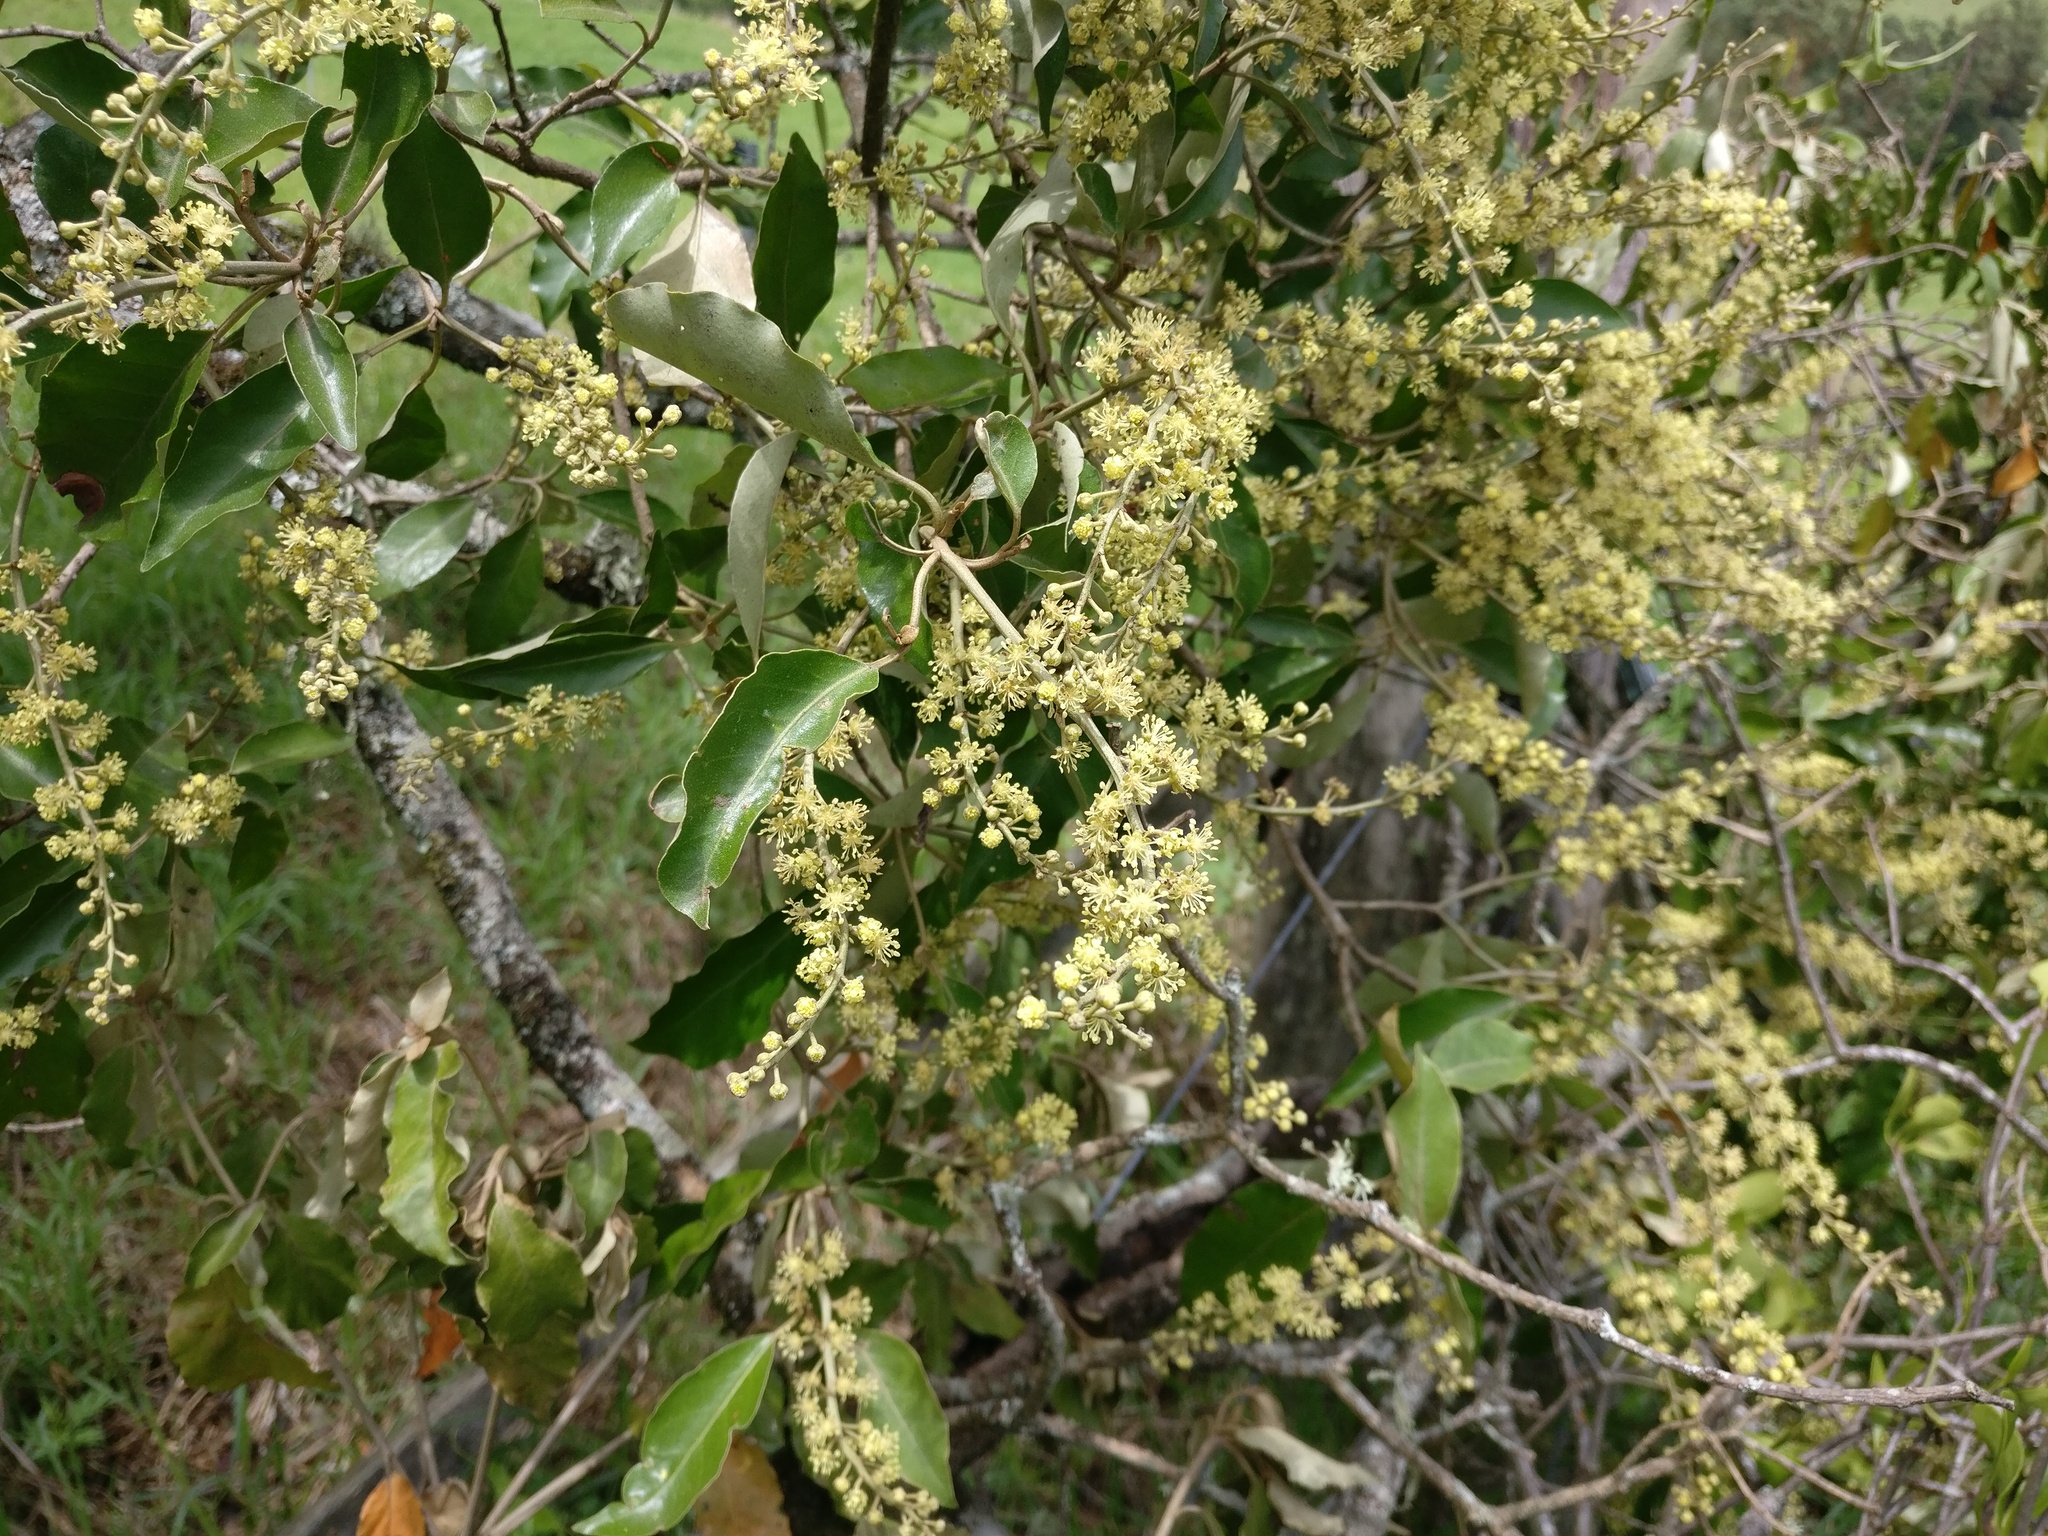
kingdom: Plantae
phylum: Tracheophyta
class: Magnoliopsida
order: Malpighiales
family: Euphorbiaceae
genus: Croton
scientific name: Croton insularis
